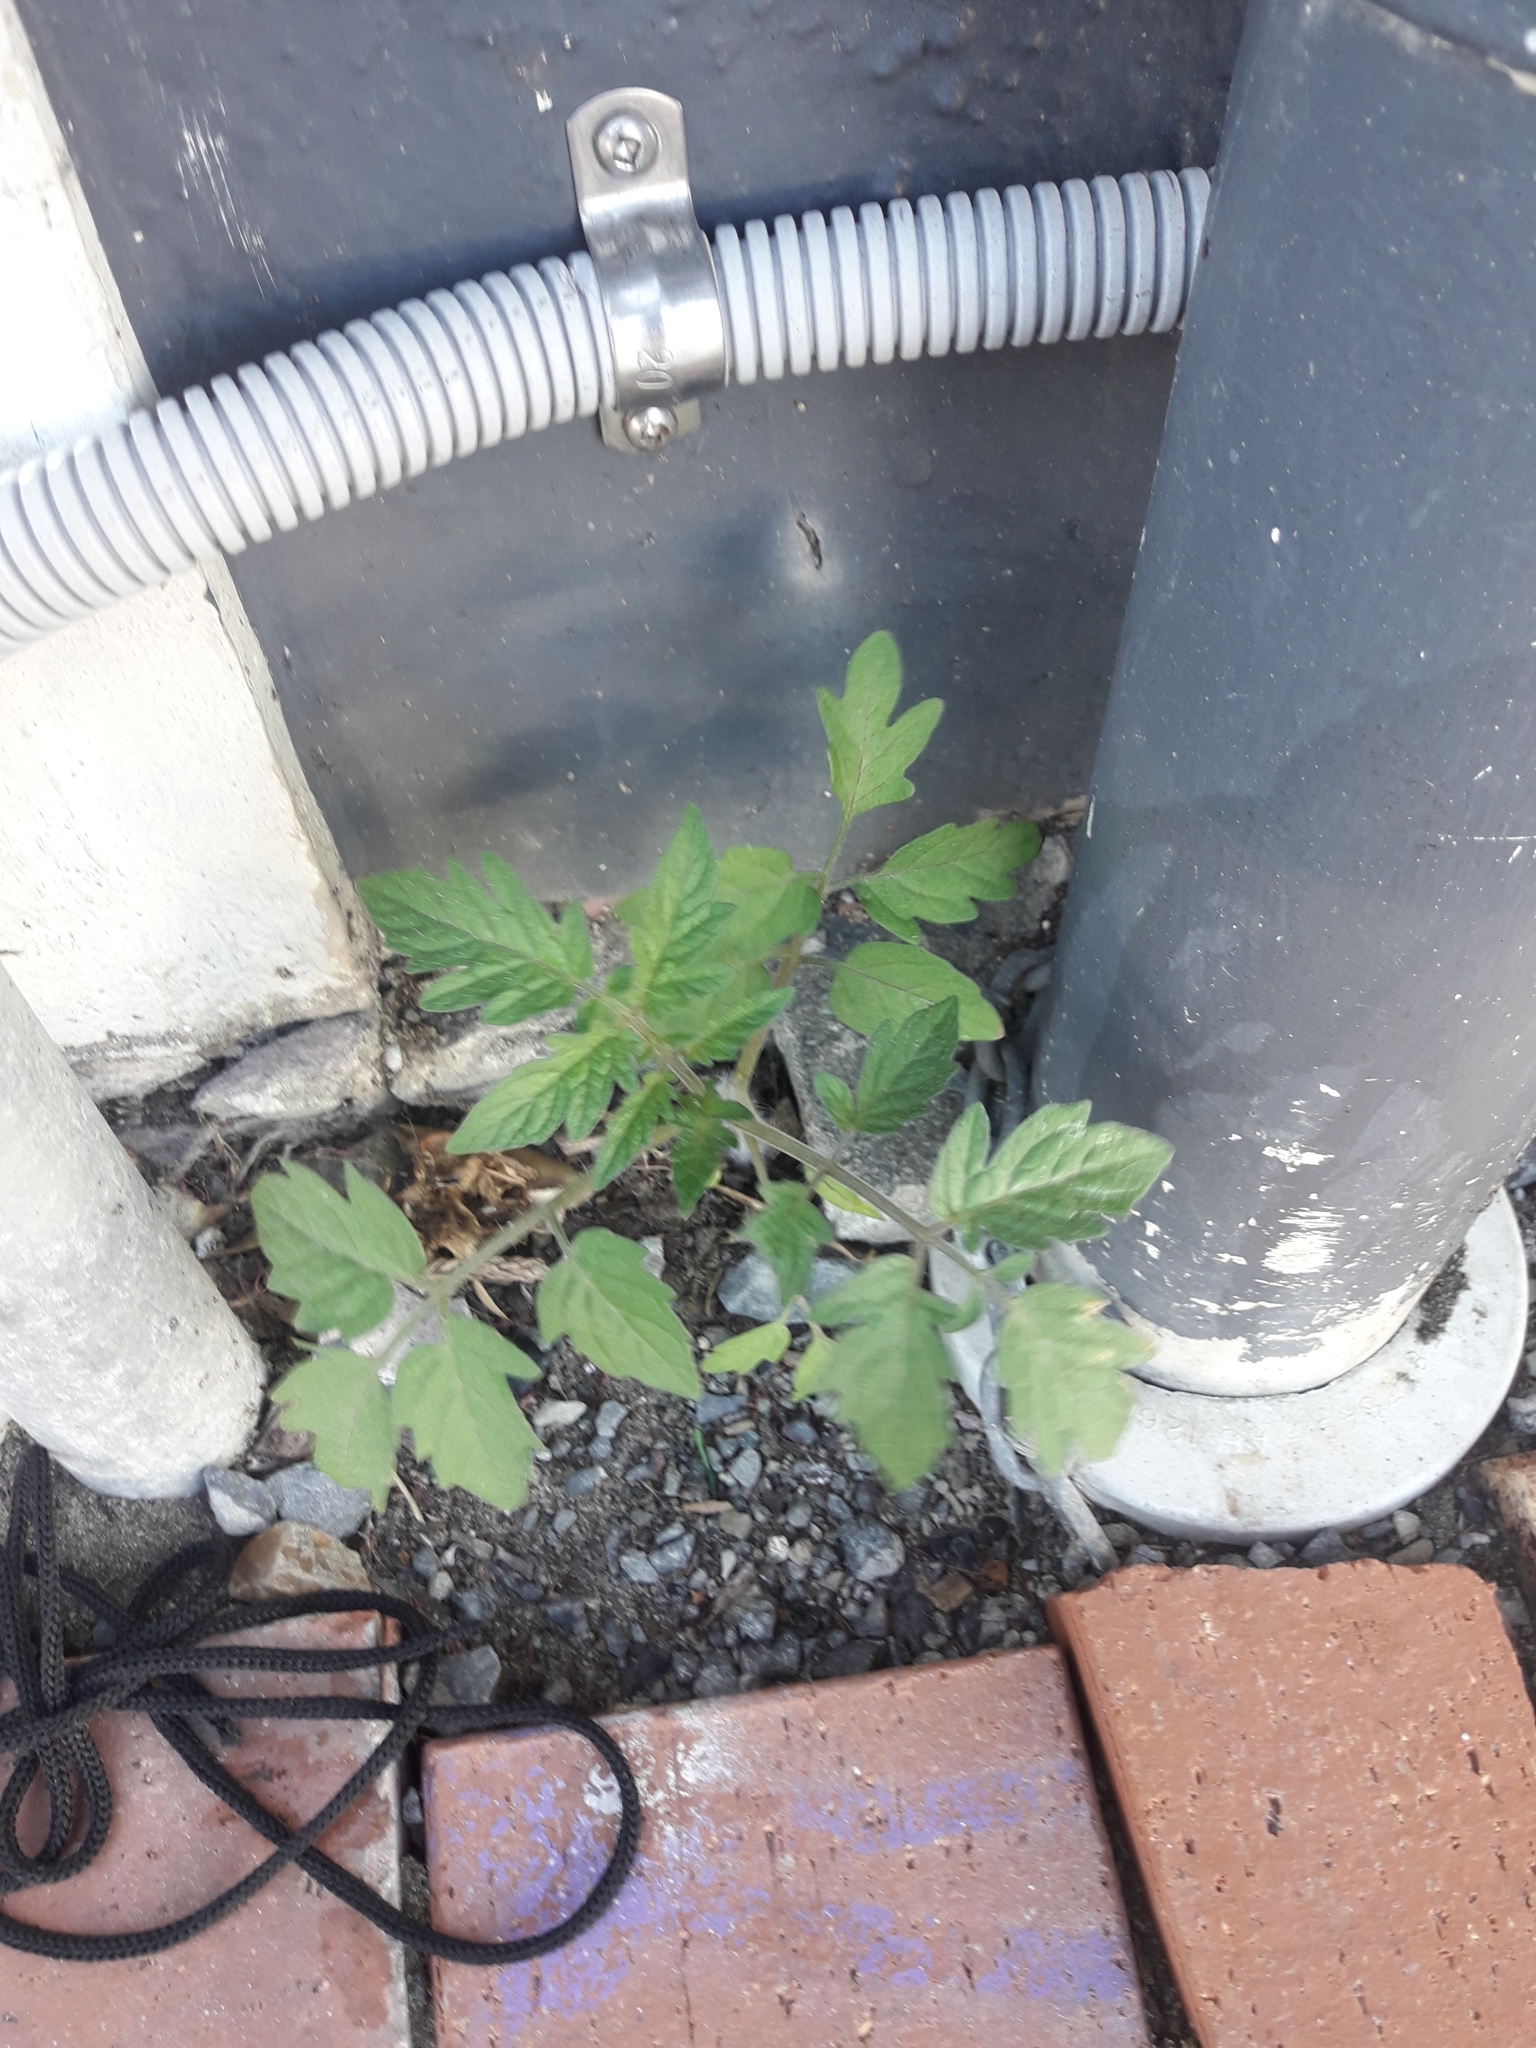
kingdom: Plantae
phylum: Tracheophyta
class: Magnoliopsida
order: Solanales
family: Solanaceae
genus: Solanum
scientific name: Solanum lycopersicum
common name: Garden tomato
